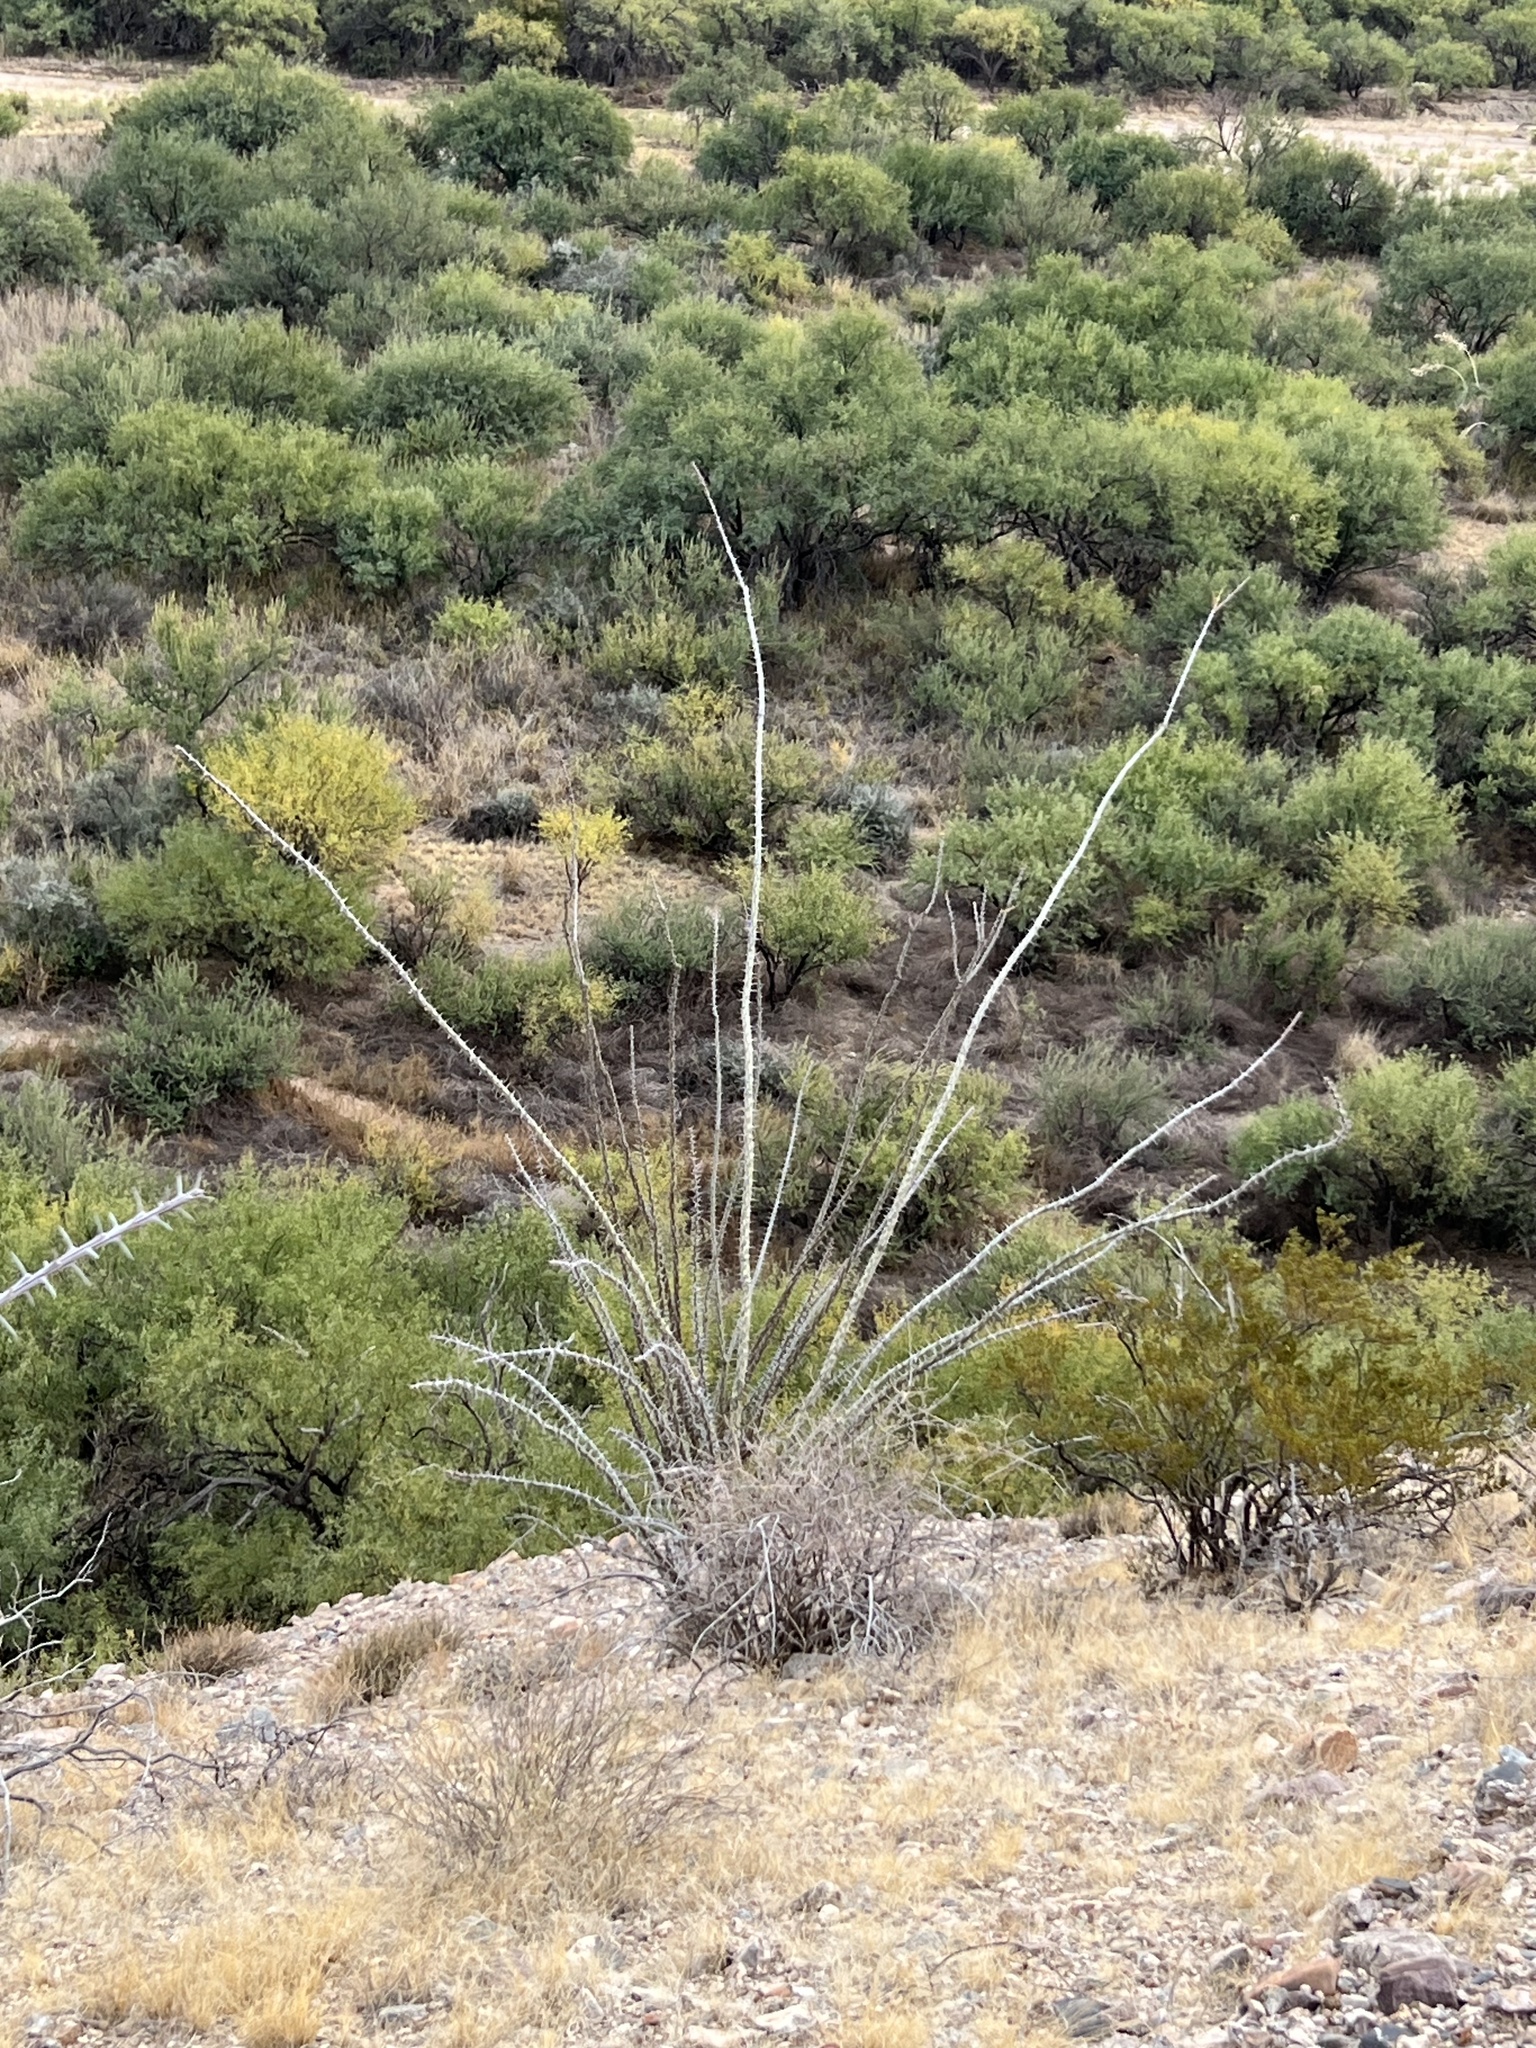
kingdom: Plantae
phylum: Tracheophyta
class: Magnoliopsida
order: Ericales
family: Fouquieriaceae
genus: Fouquieria
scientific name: Fouquieria splendens
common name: Vine-cactus
